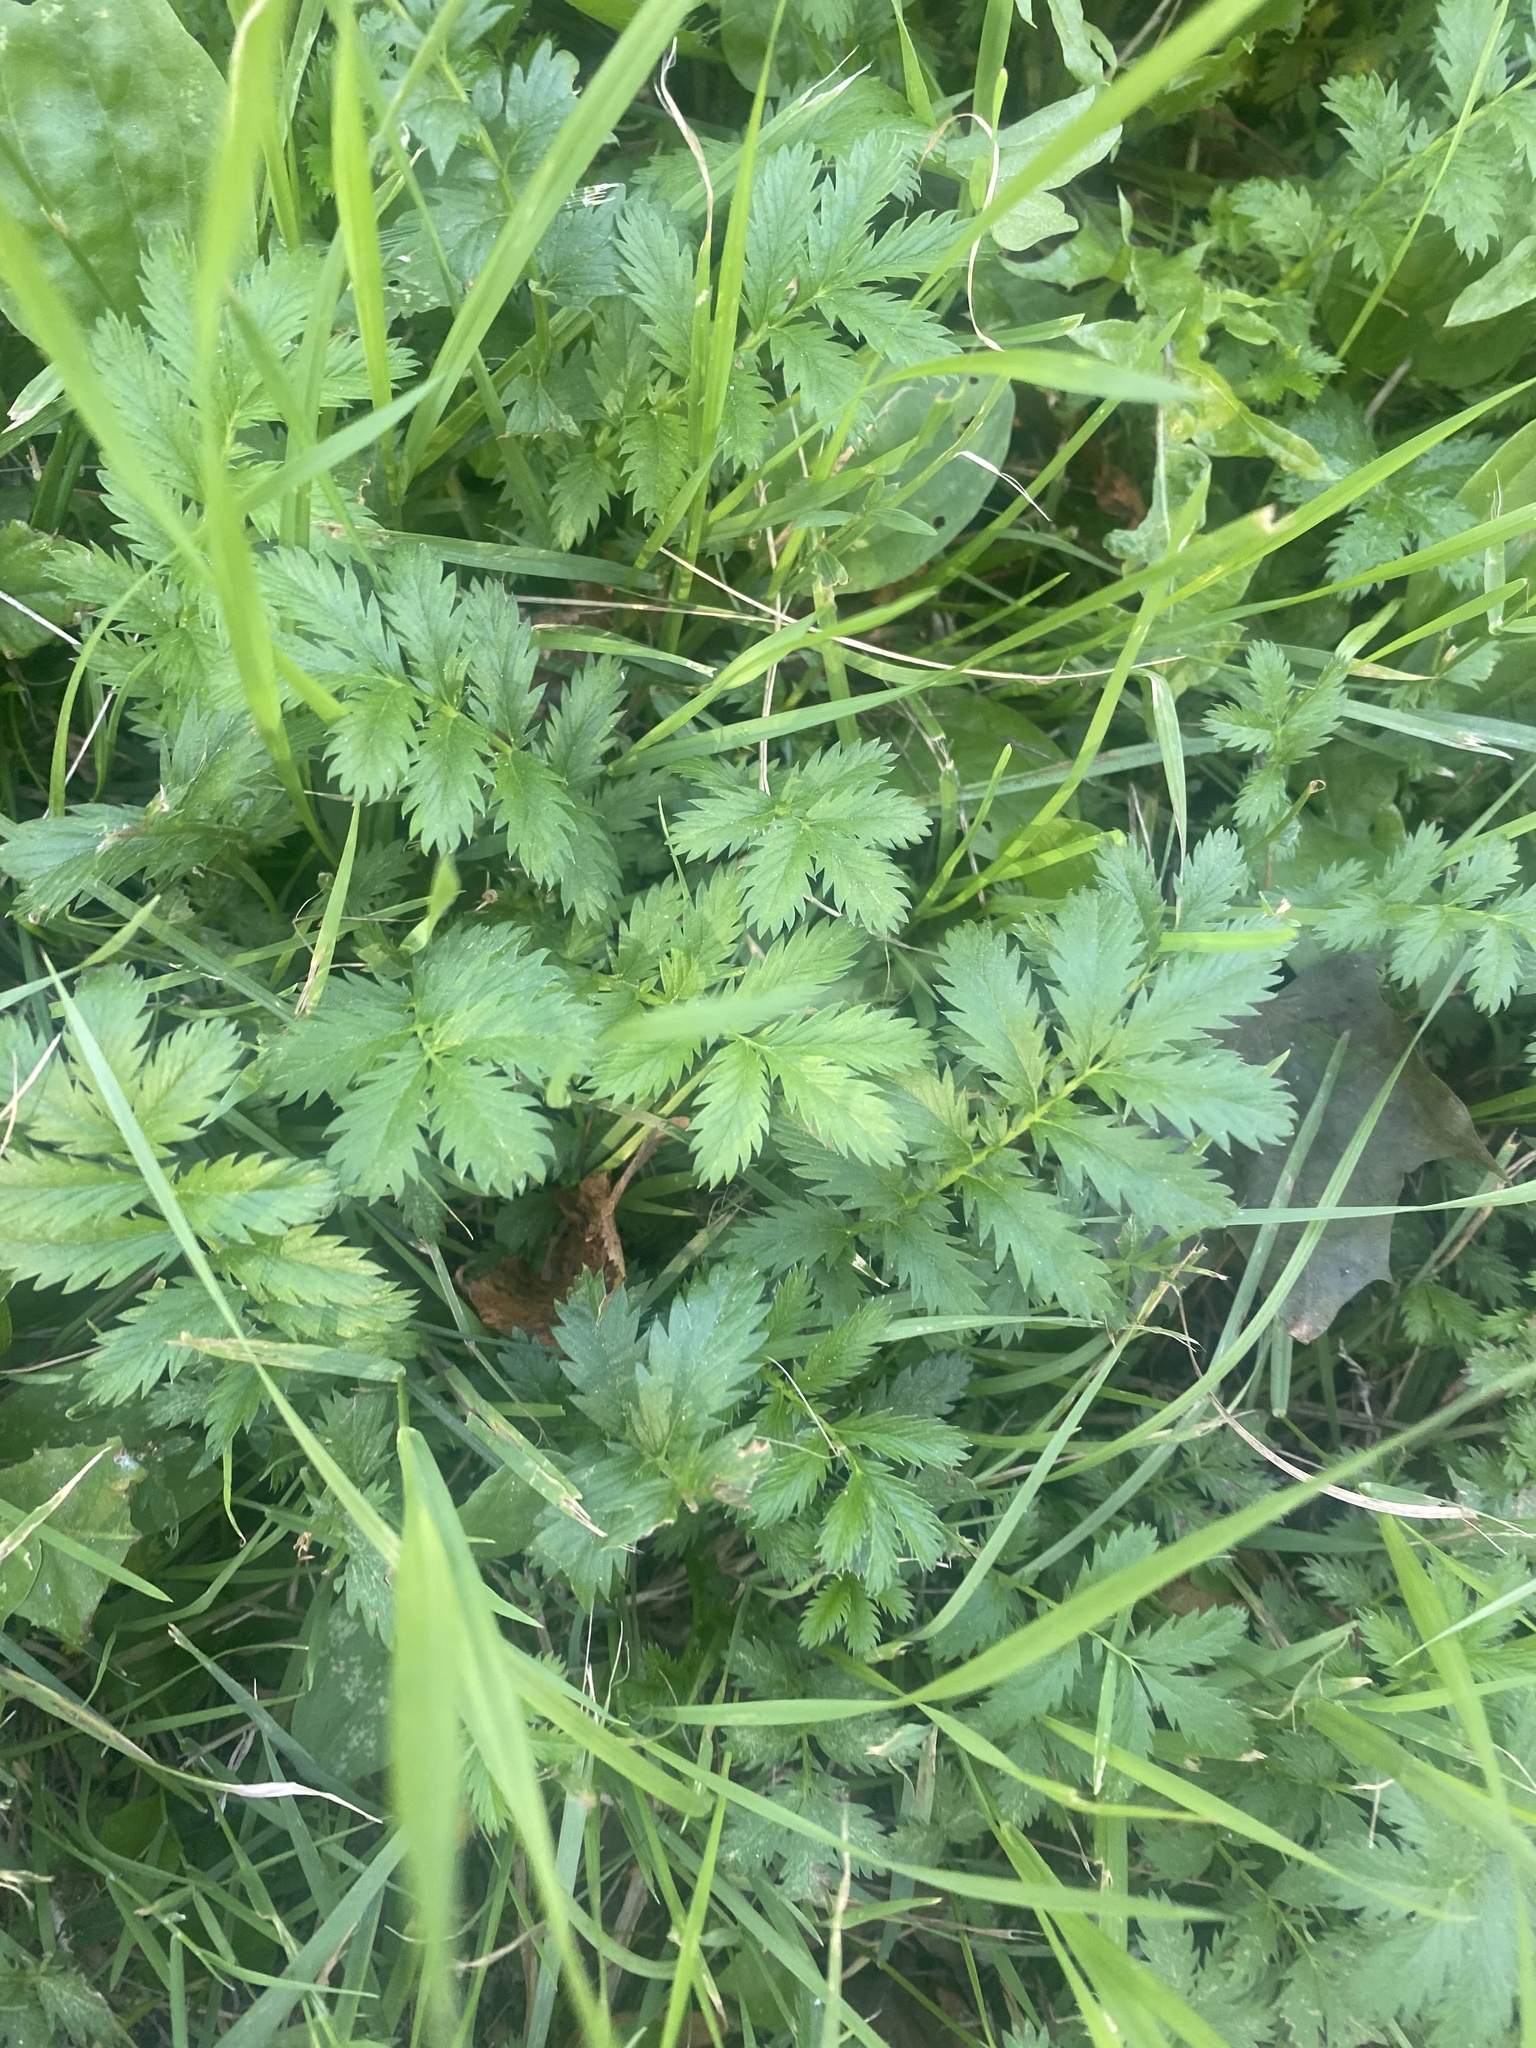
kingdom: Plantae
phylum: Tracheophyta
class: Magnoliopsida
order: Rosales
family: Rosaceae
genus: Argentina
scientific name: Argentina anserina
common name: Common silverweed
